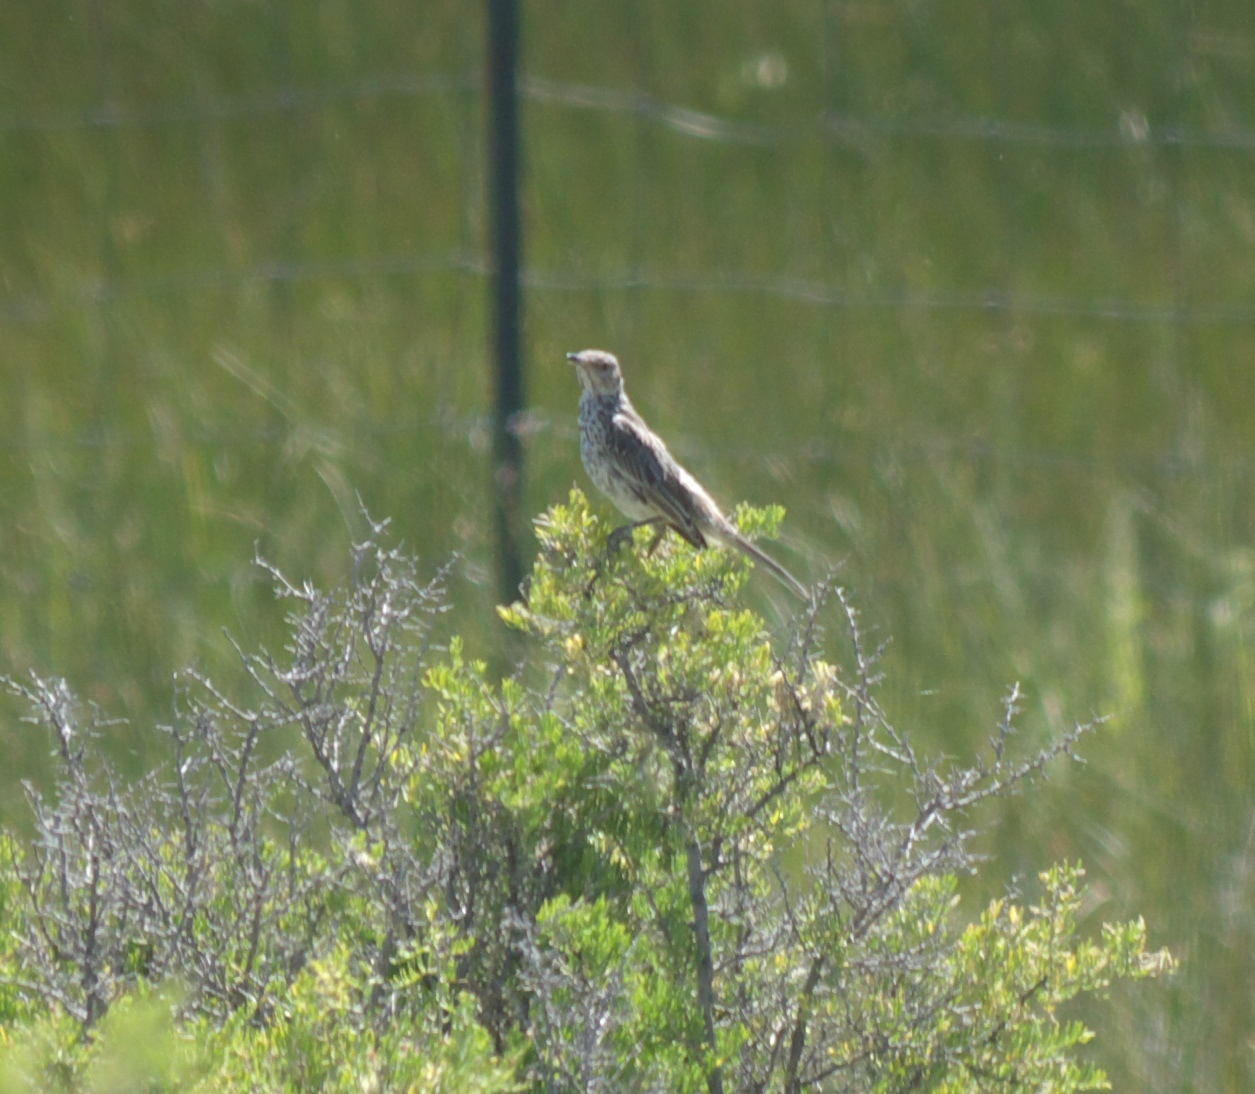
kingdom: Animalia
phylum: Chordata
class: Aves
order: Passeriformes
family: Mimidae
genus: Oreoscoptes
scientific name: Oreoscoptes montanus
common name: Sage thrasher
